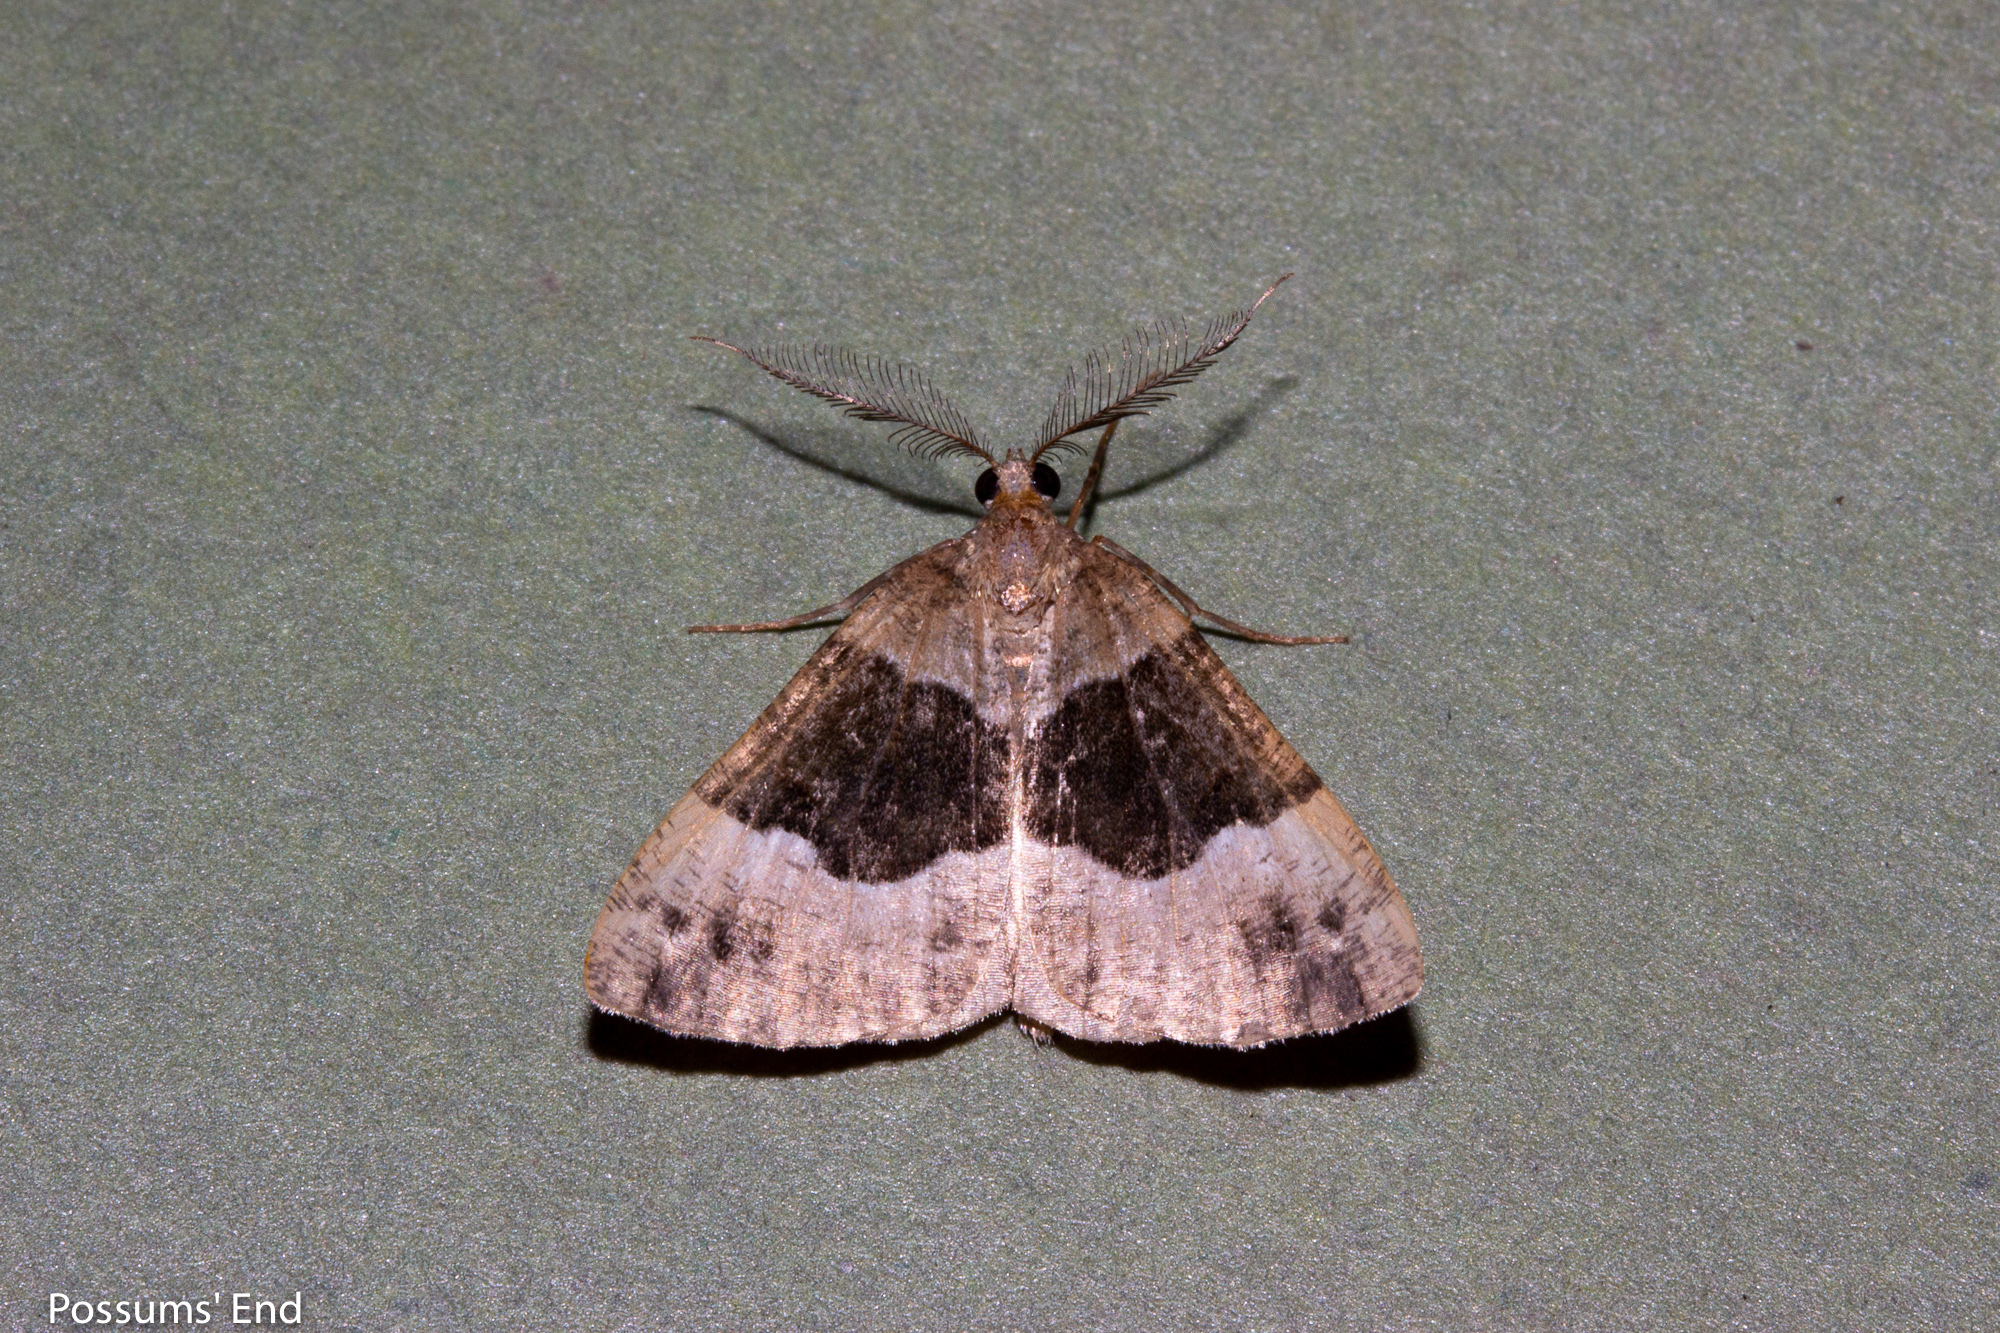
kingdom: Animalia
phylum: Arthropoda
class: Insecta
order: Lepidoptera
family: Geometridae
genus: Pseudocoremia
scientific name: Pseudocoremia
